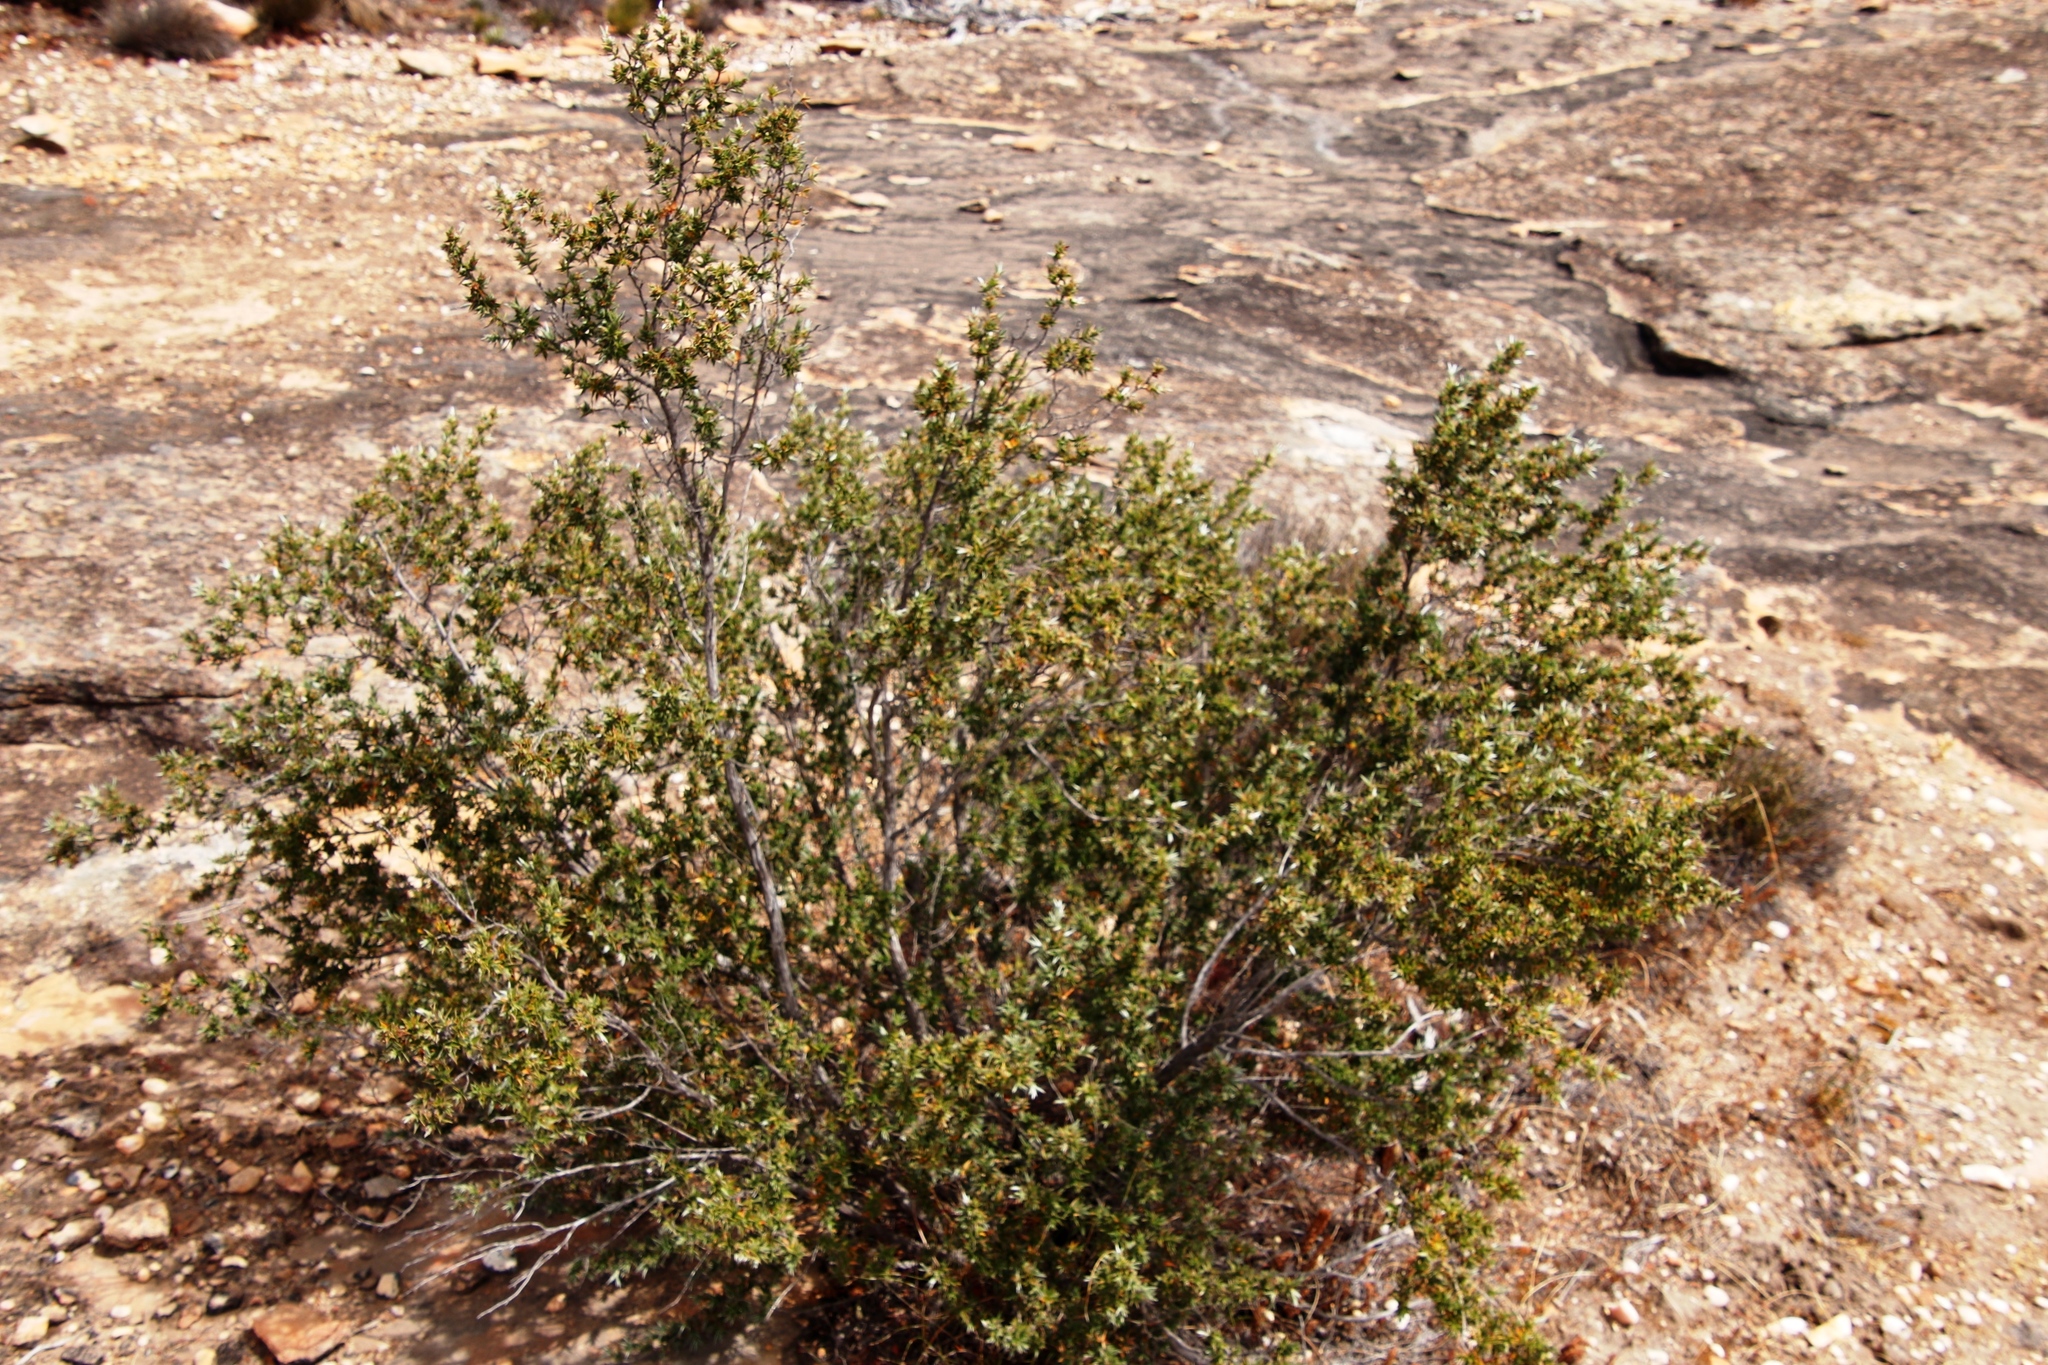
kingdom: Plantae
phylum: Tracheophyta
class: Magnoliopsida
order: Rosales
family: Rosaceae
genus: Cliffortia
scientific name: Cliffortia ruscifolia
